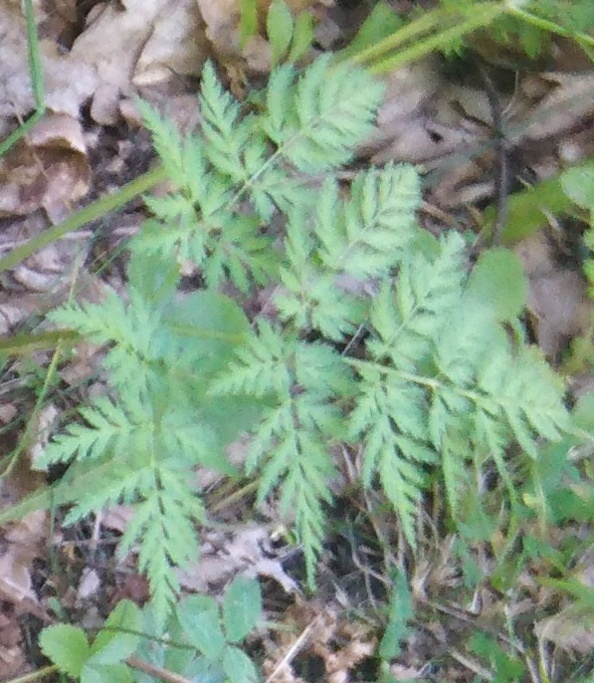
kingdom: Plantae
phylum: Tracheophyta
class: Magnoliopsida
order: Apiales
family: Apiaceae
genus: Anthriscus
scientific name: Anthriscus sylvestris
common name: Cow parsley
